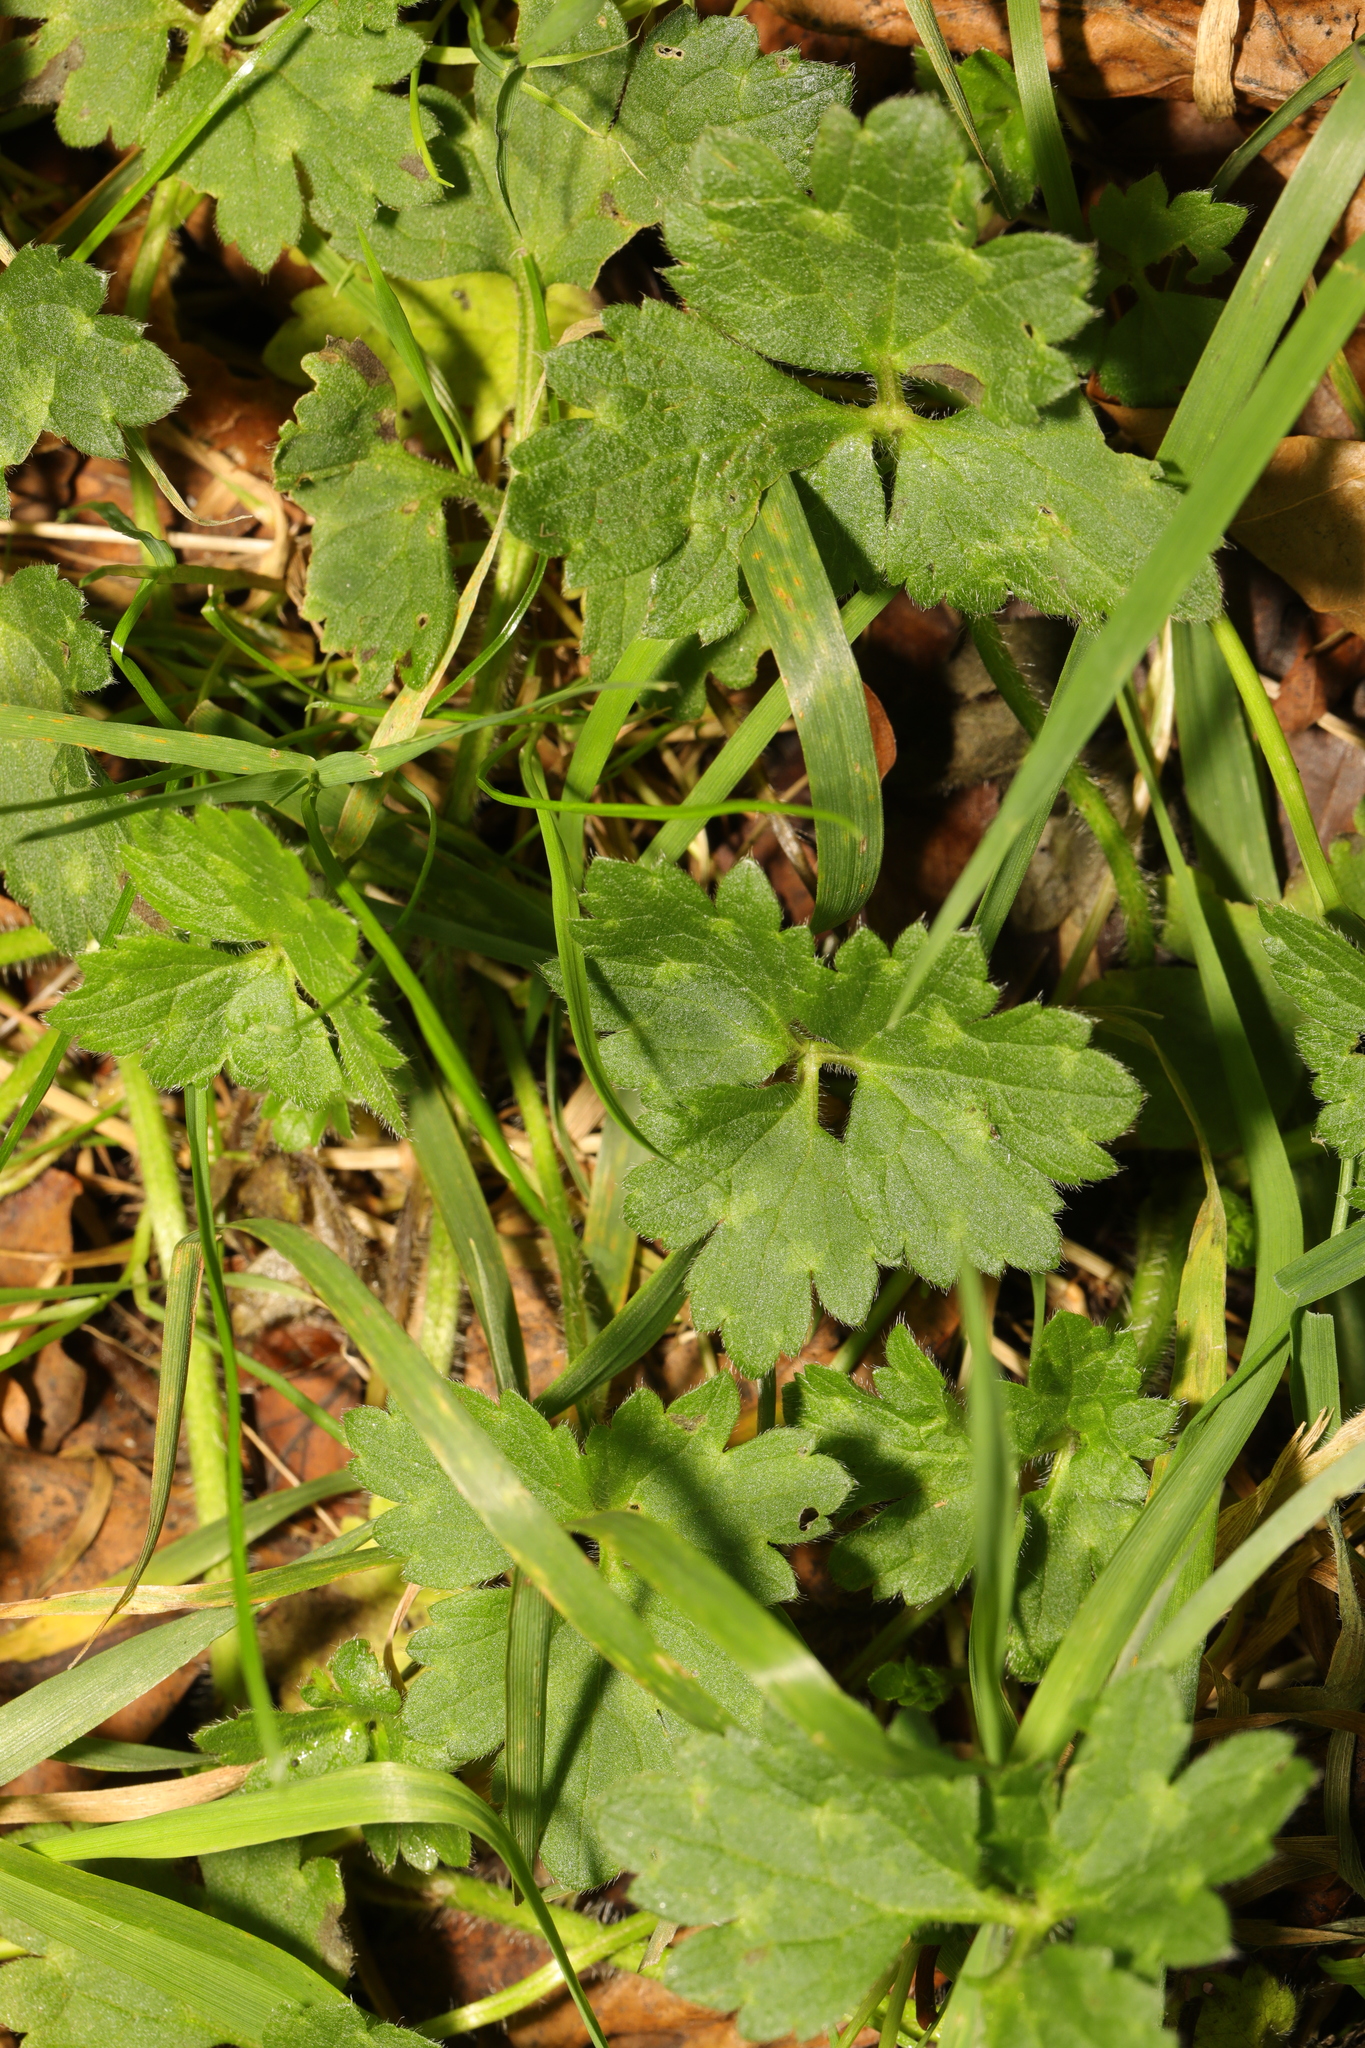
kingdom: Plantae
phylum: Tracheophyta
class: Magnoliopsida
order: Ranunculales
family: Ranunculaceae
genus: Ranunculus
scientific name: Ranunculus repens
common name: Creeping buttercup
